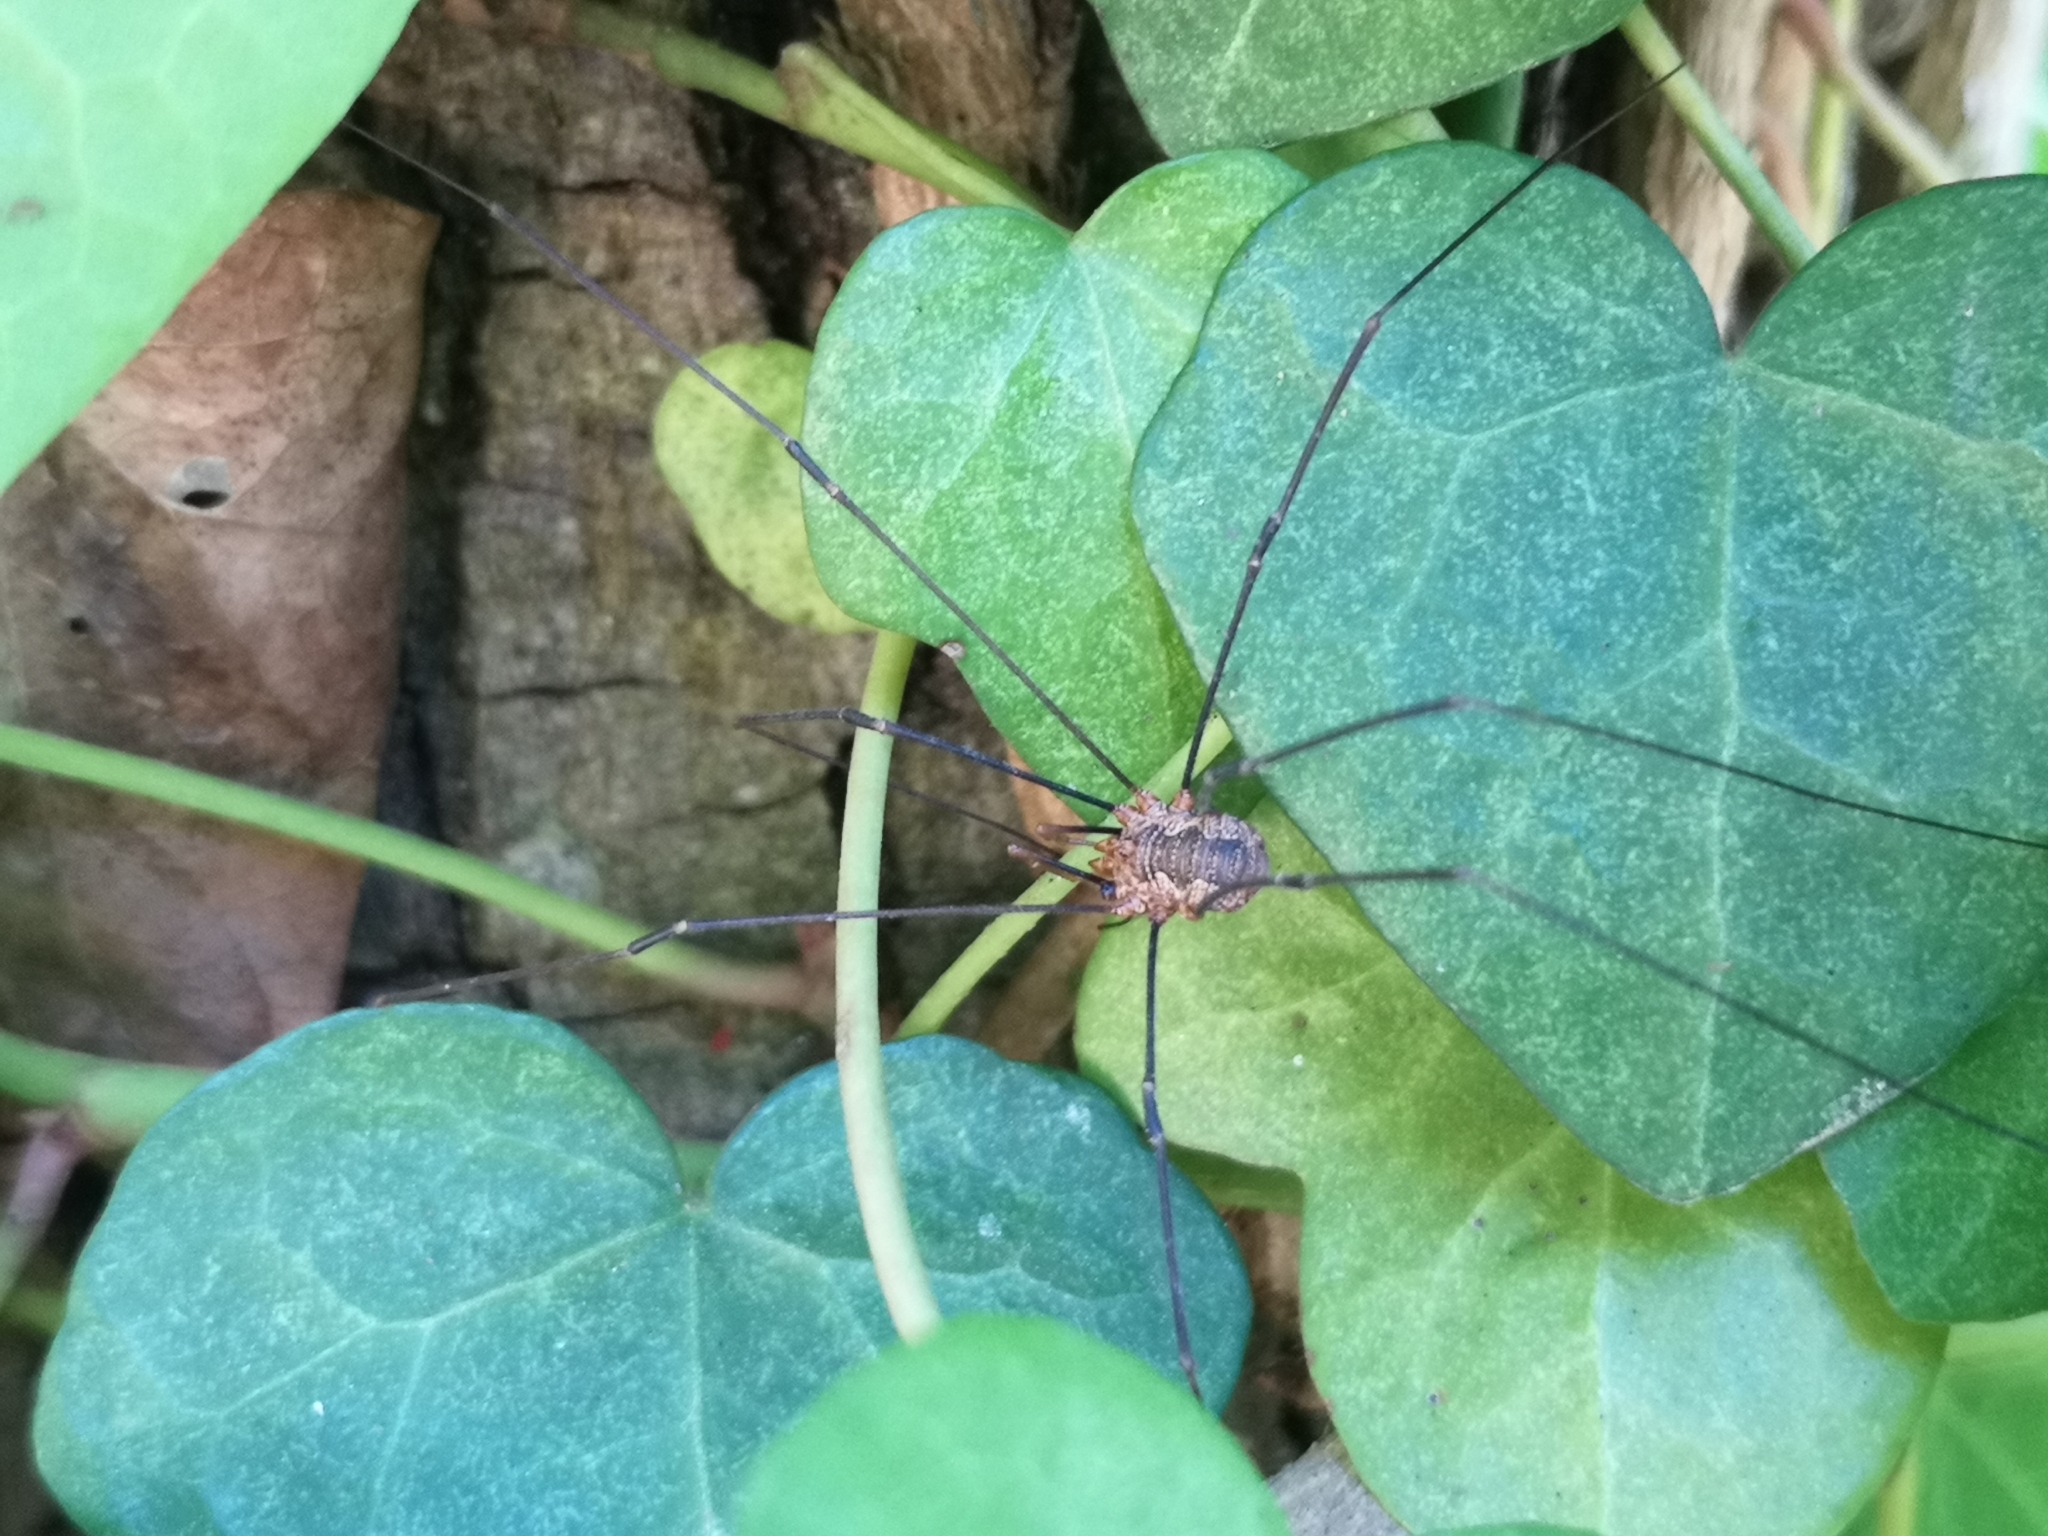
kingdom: Animalia
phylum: Arthropoda
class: Arachnida
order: Opiliones
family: Phalangiidae
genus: Phalangium
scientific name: Phalangium opilio
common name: Daddy longleg
